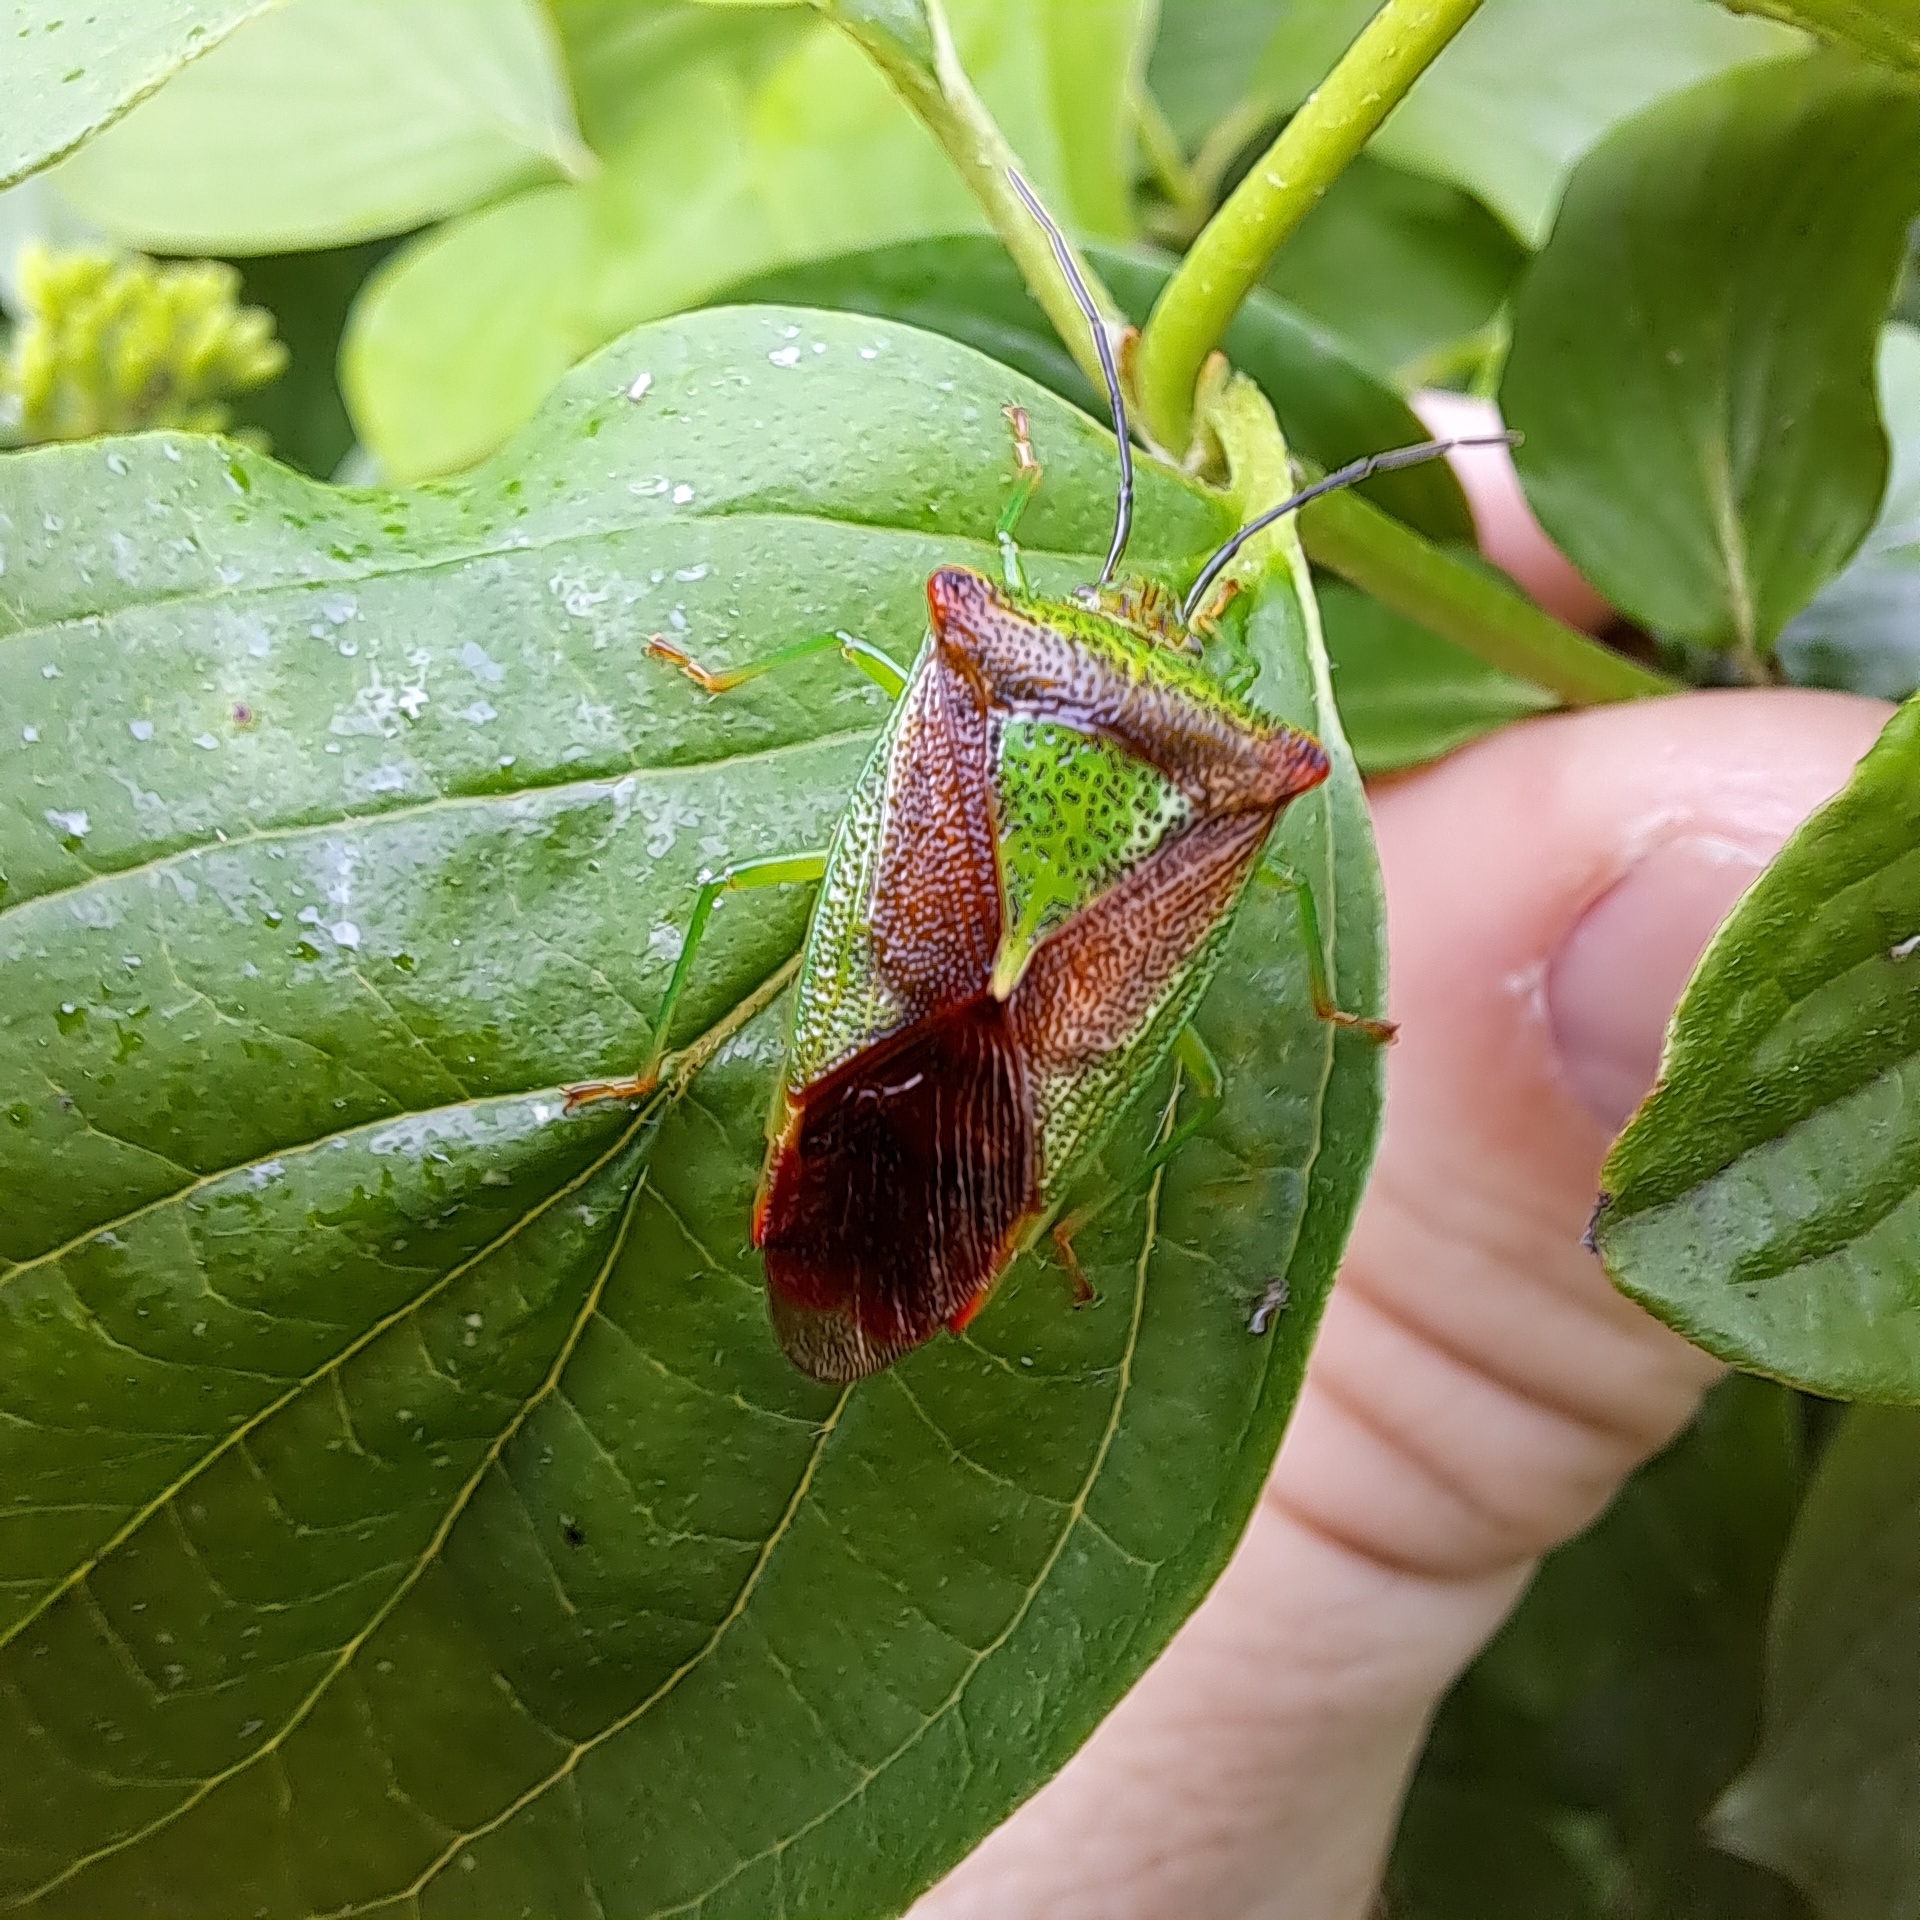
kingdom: Animalia
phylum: Arthropoda
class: Insecta
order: Hemiptera
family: Acanthosomatidae
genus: Acanthosoma
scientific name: Acanthosoma haemorrhoidale
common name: Hawthorn shieldbug
